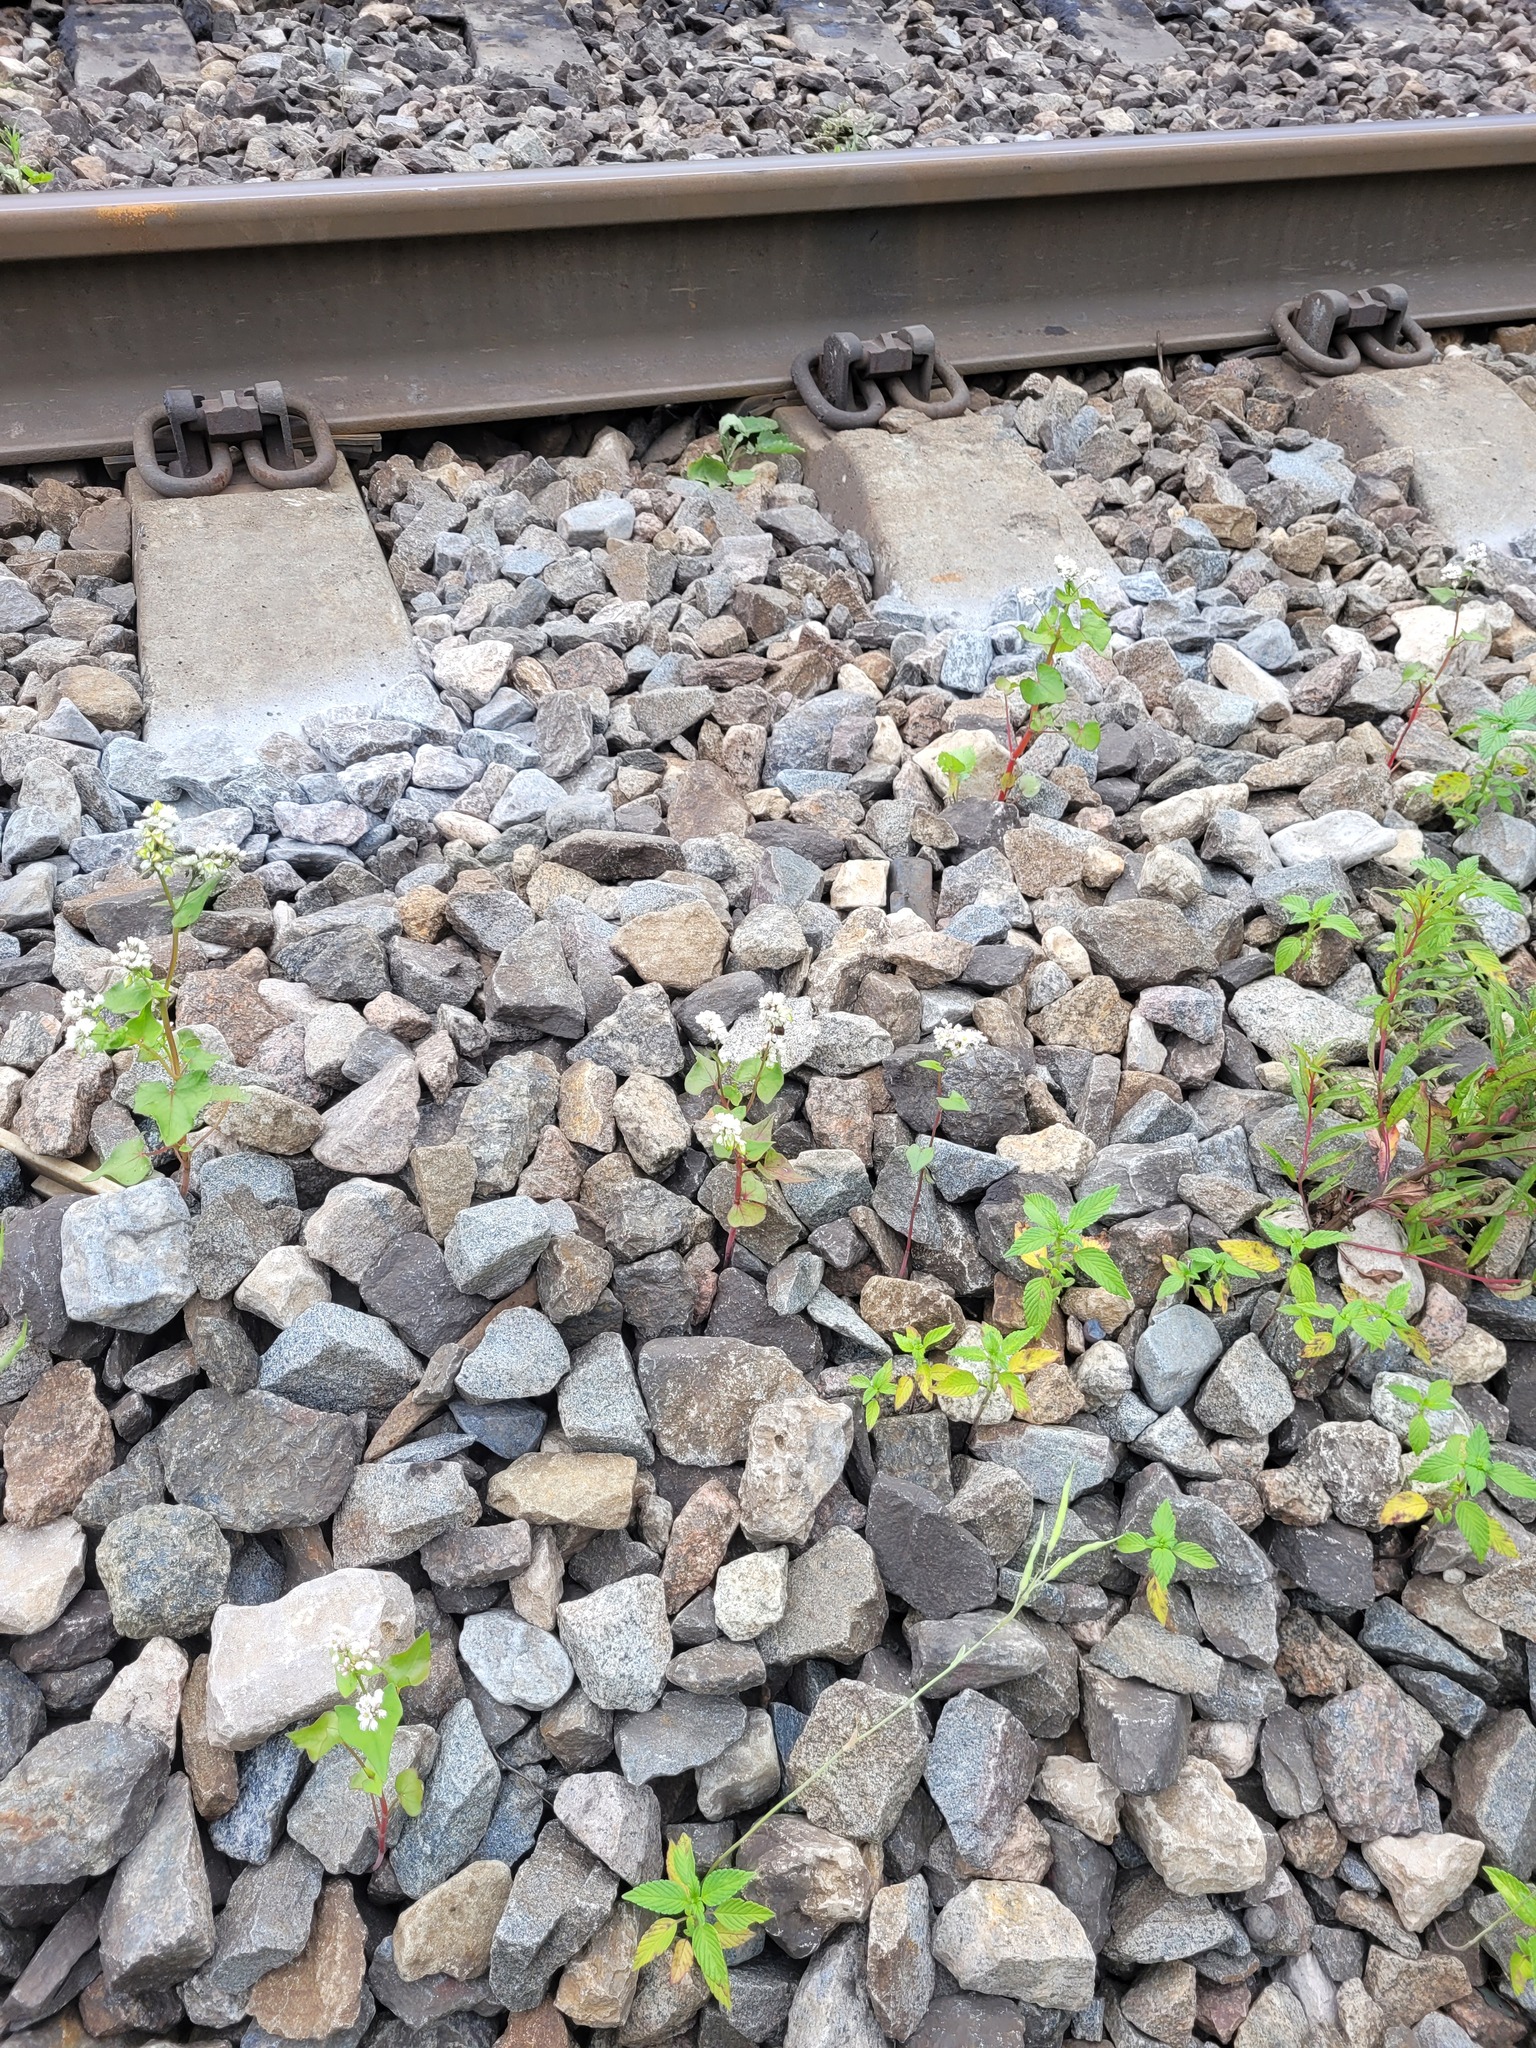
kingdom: Plantae
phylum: Tracheophyta
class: Magnoliopsida
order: Caryophyllales
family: Polygonaceae
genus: Fagopyrum
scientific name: Fagopyrum esculentum
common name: Buckwheat
